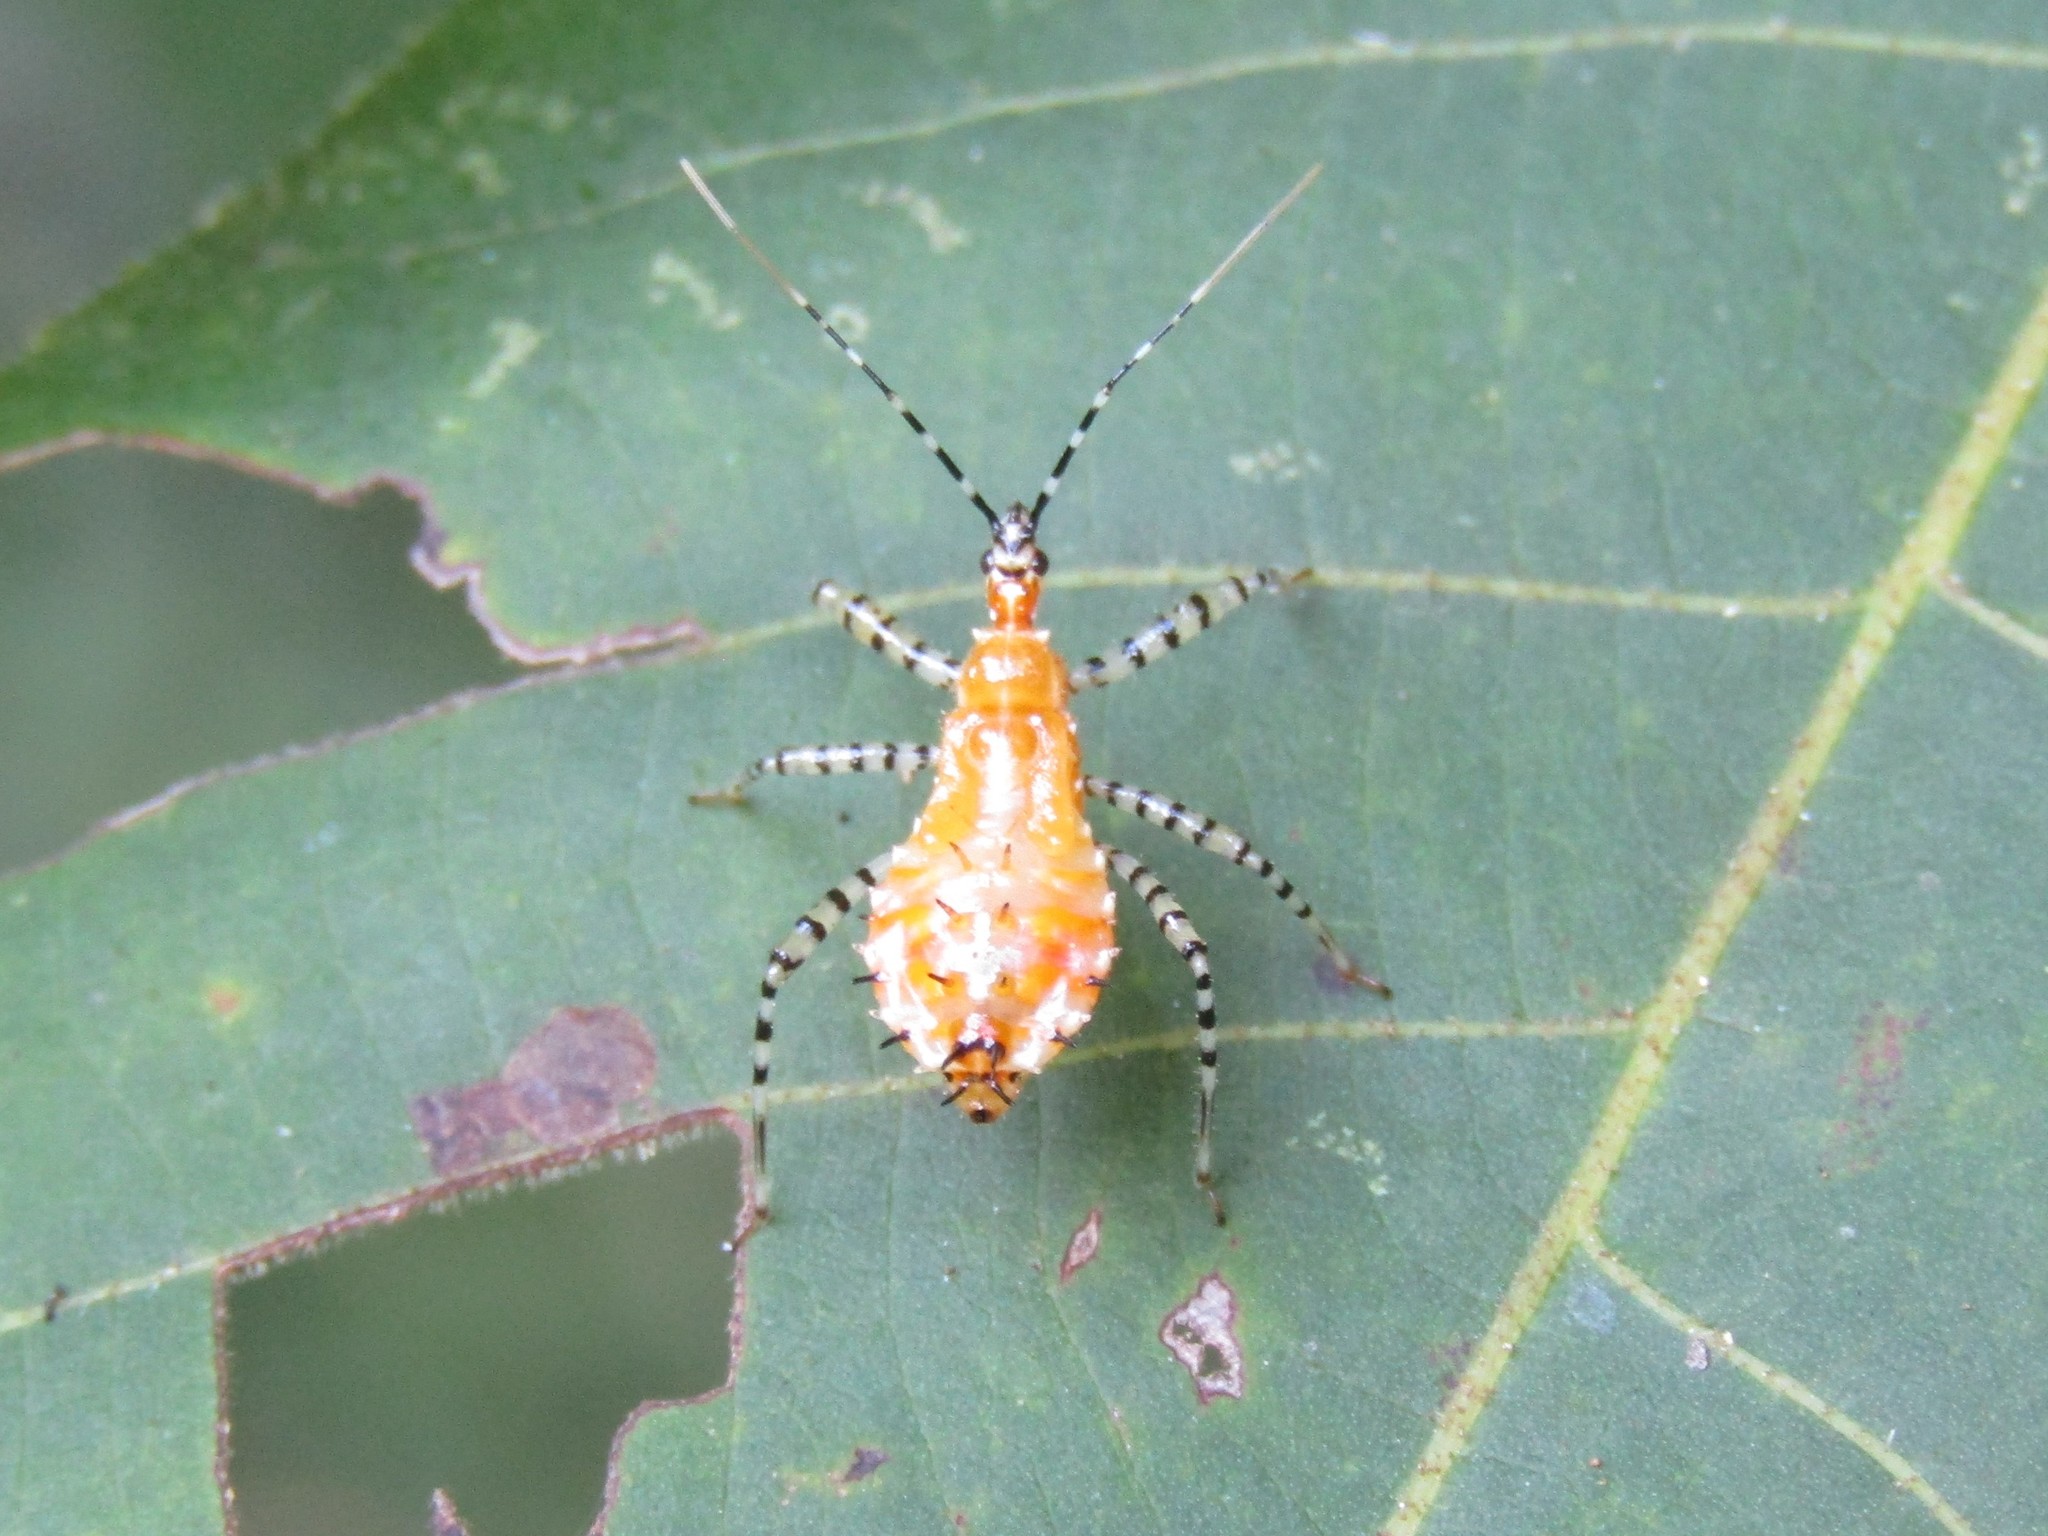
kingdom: Animalia
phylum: Arthropoda
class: Insecta
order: Hemiptera
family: Reduviidae
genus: Pselliopus
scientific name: Pselliopus cinctus
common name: Ringed assassin bug
